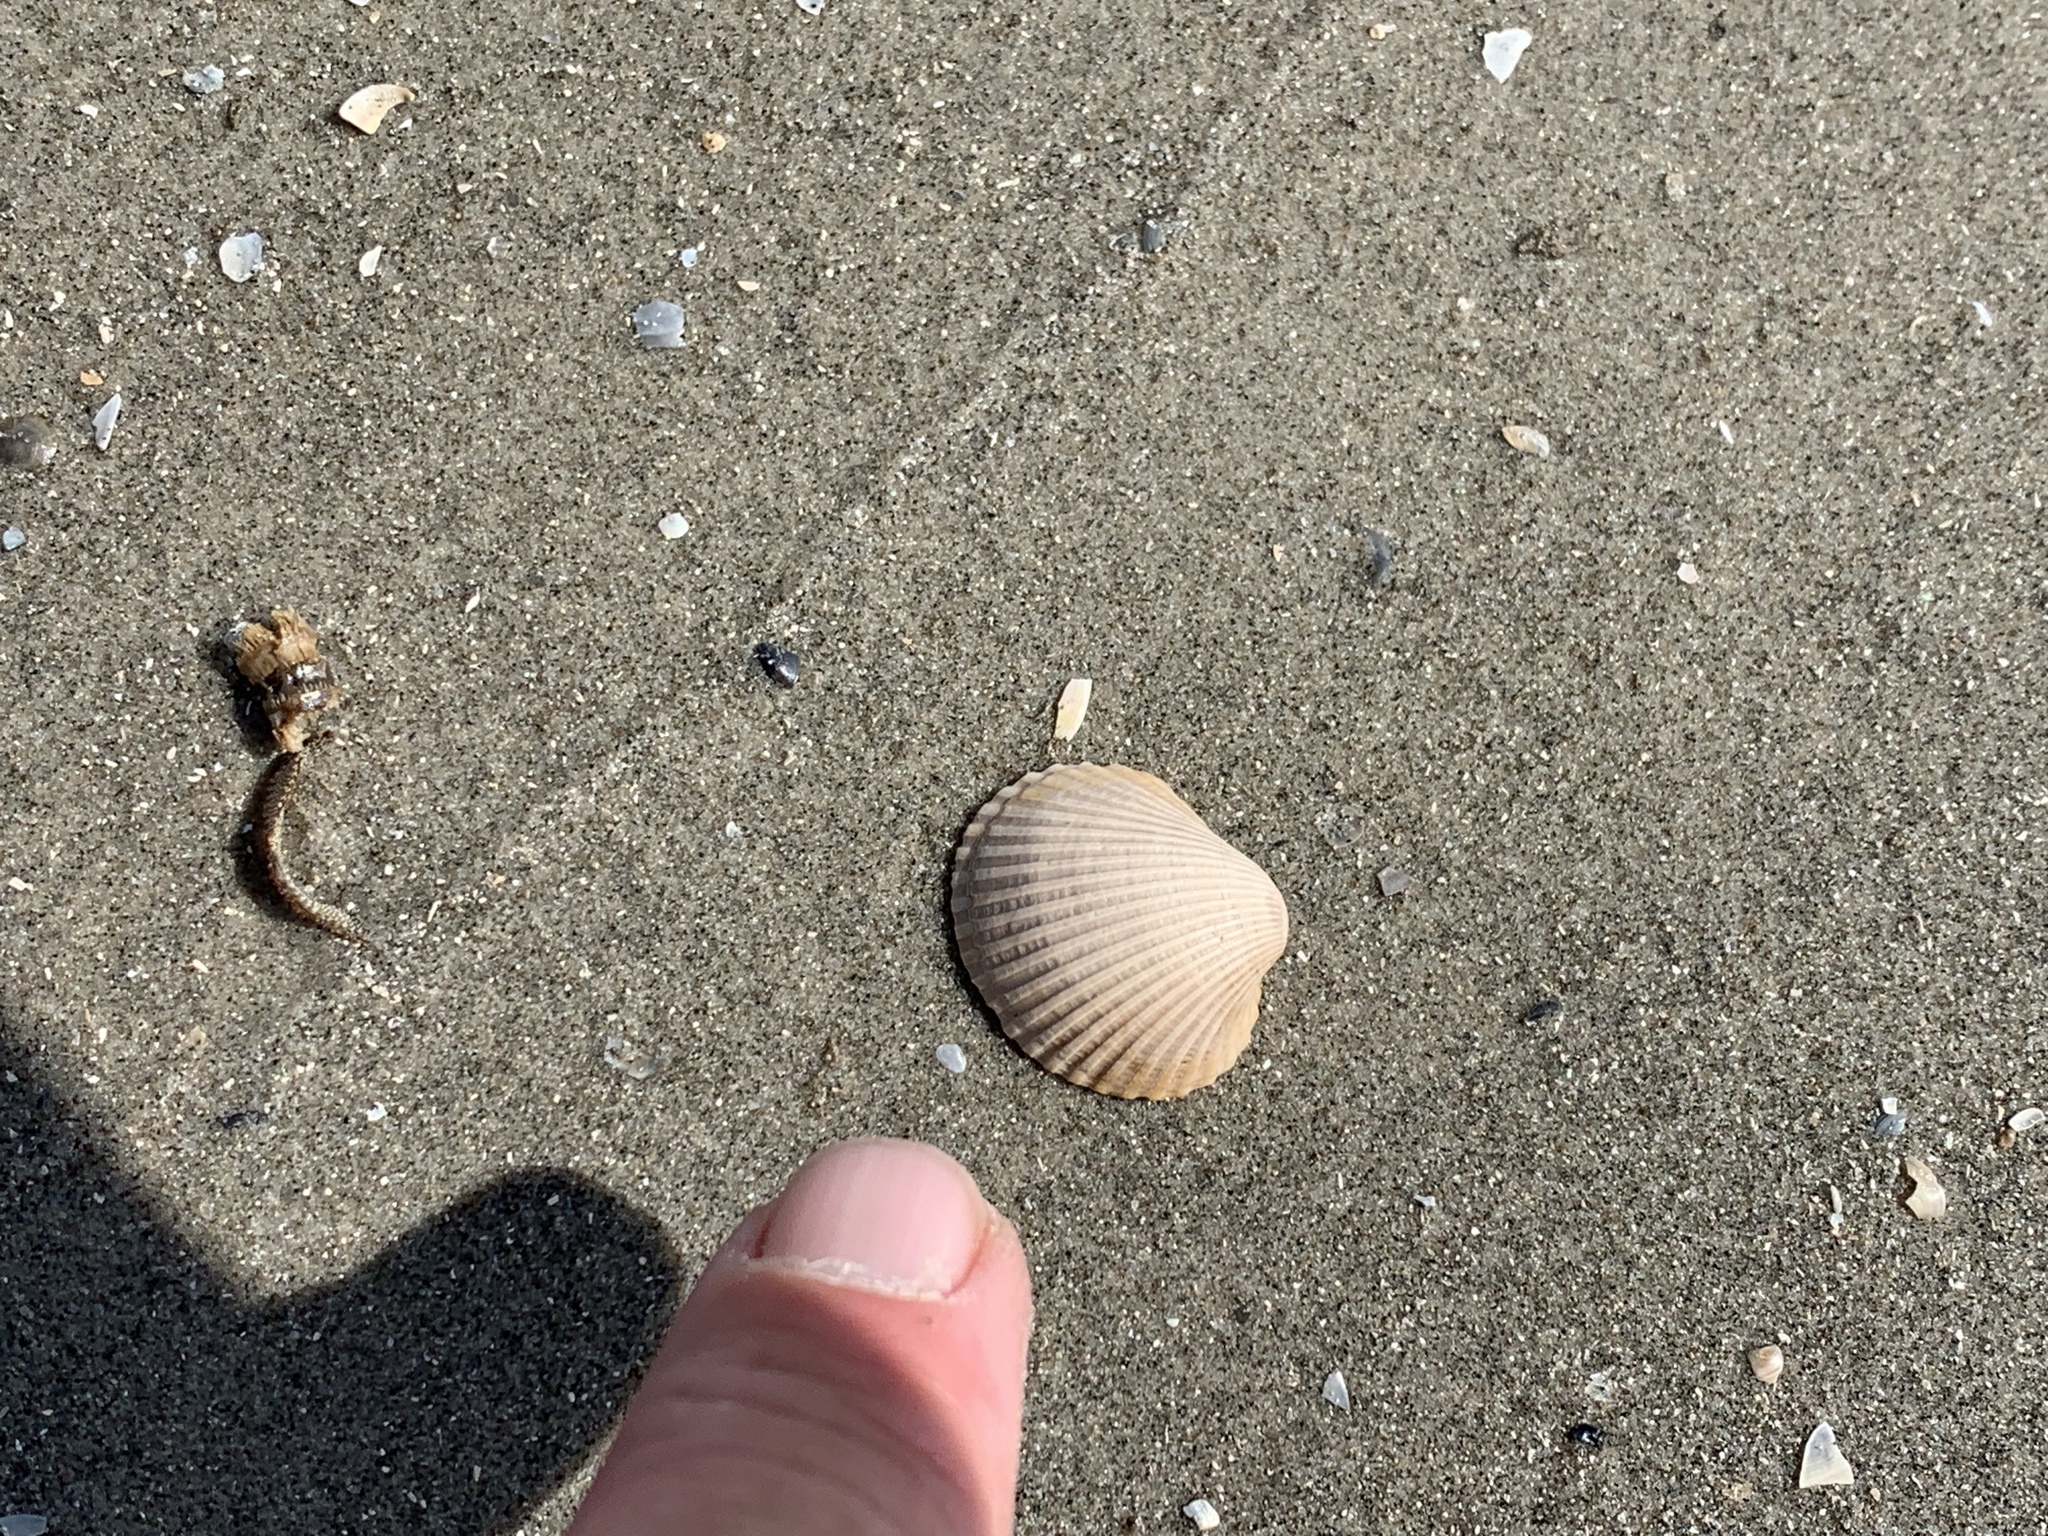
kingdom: Animalia
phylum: Mollusca
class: Bivalvia
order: Arcida
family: Arcidae
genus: Lunarca
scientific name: Lunarca ovalis
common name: Blood ark
